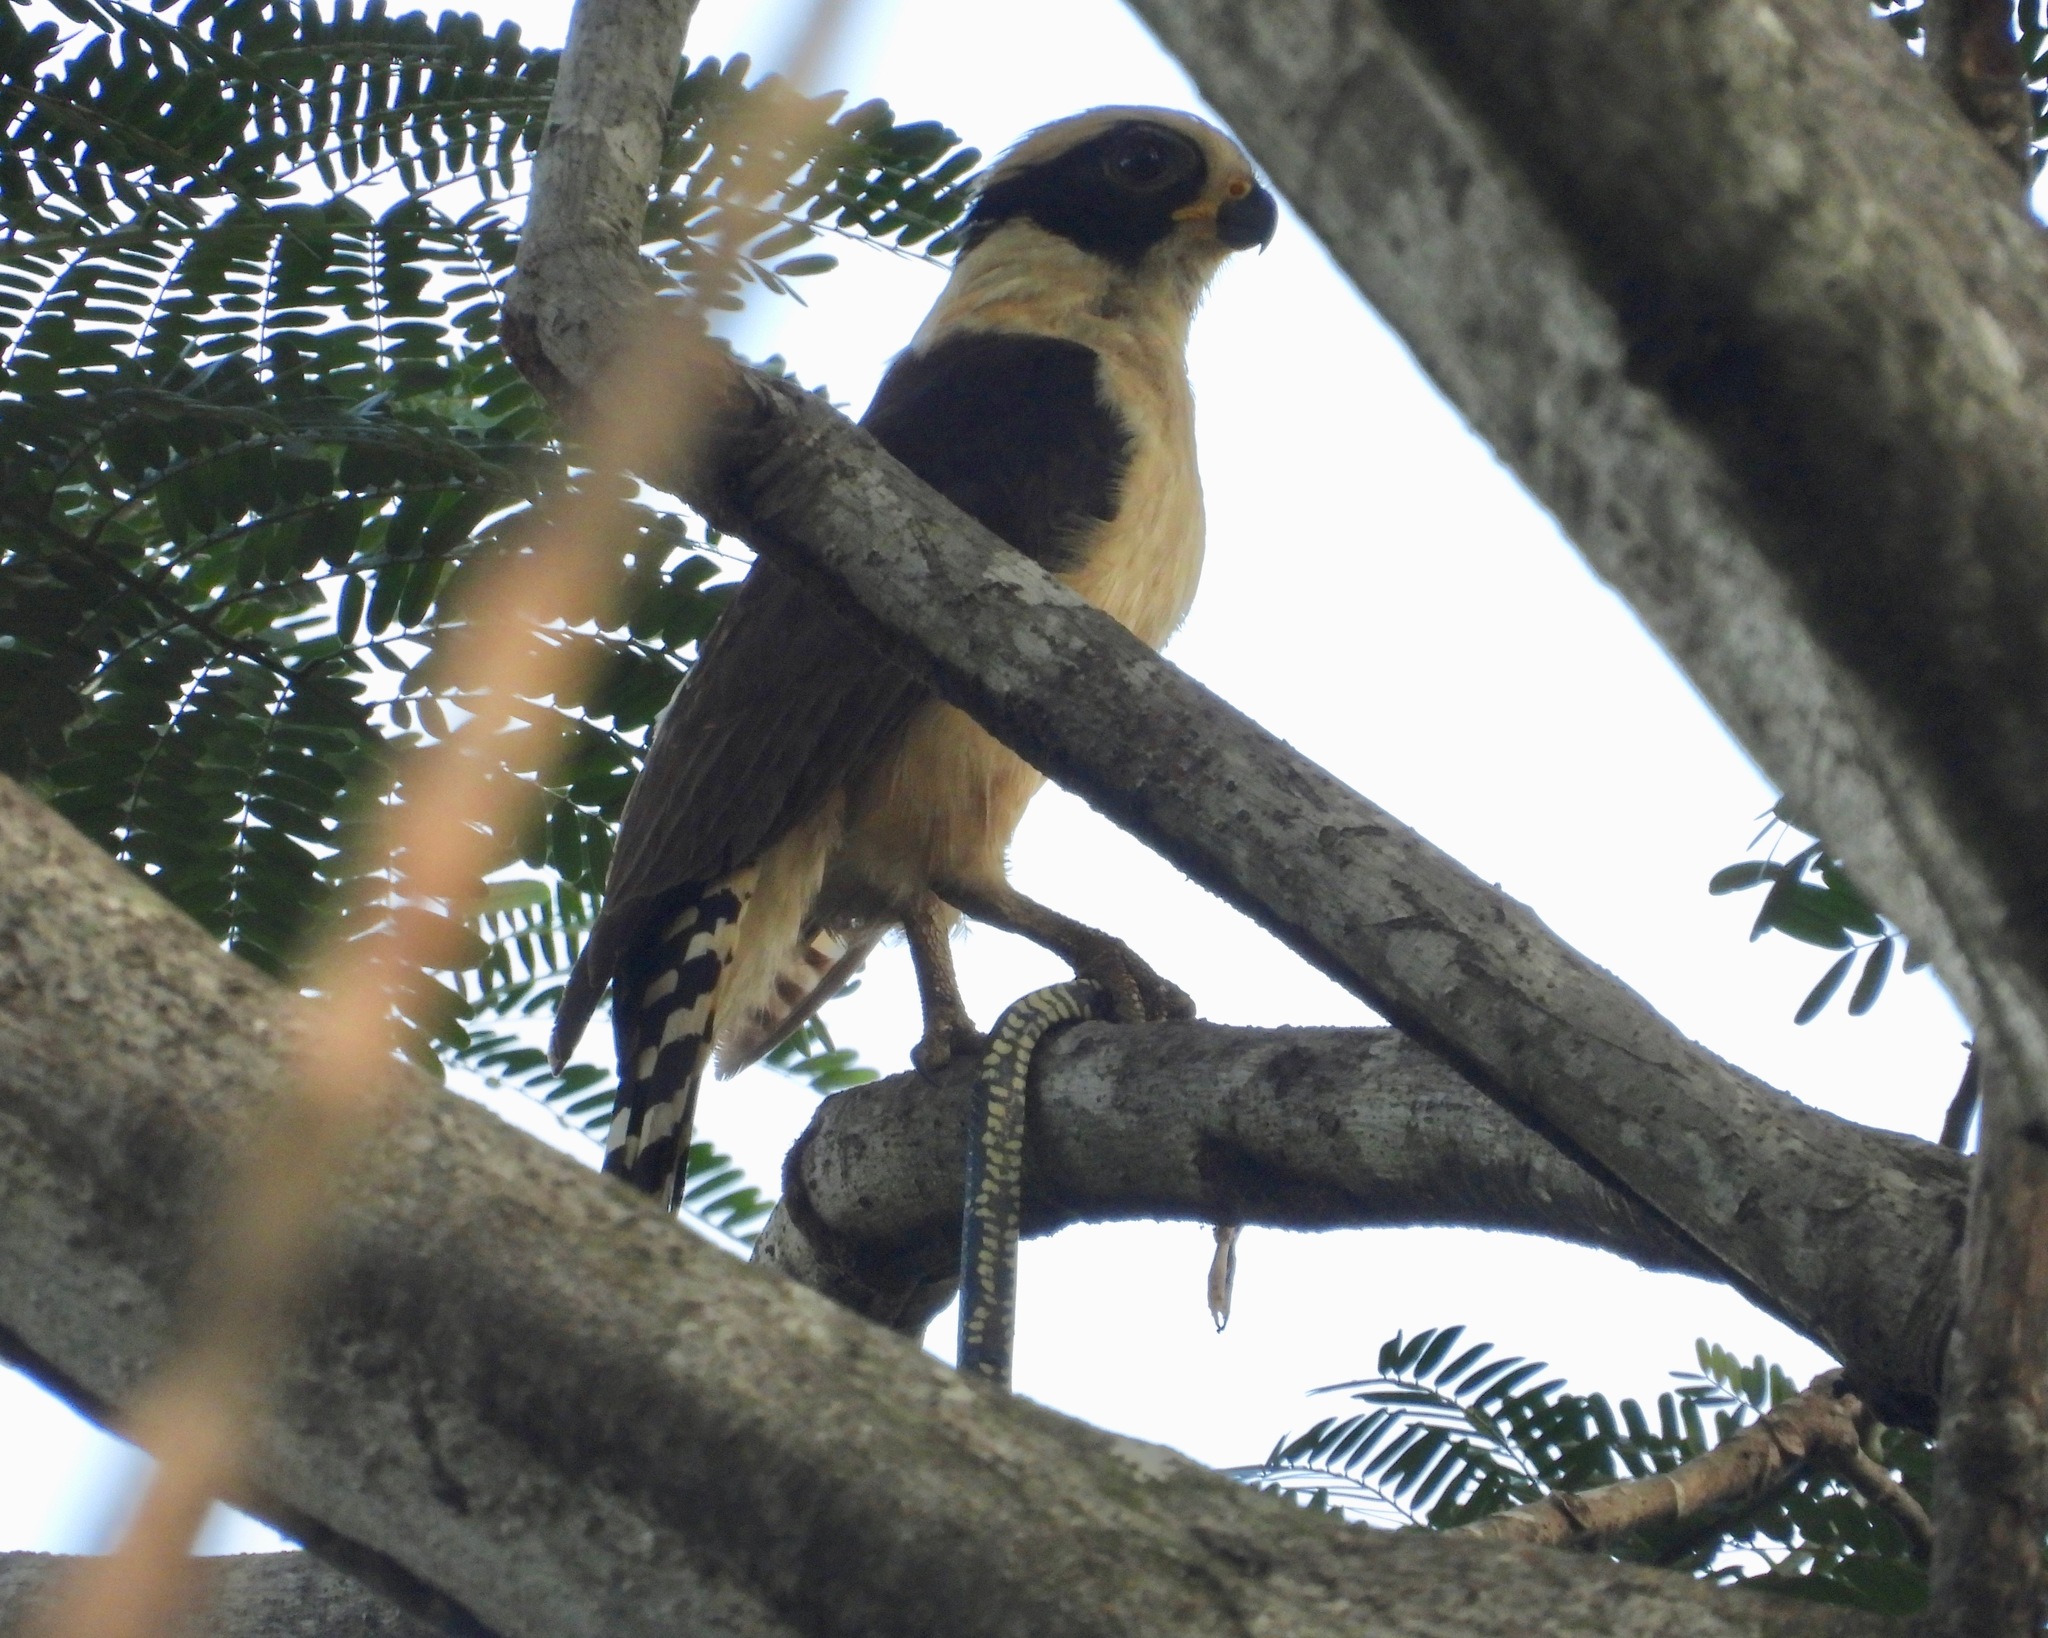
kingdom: Animalia
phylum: Chordata
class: Aves
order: Falconiformes
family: Falconidae
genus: Herpetotheres
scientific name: Herpetotheres cachinnans
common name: Laughing falcon
